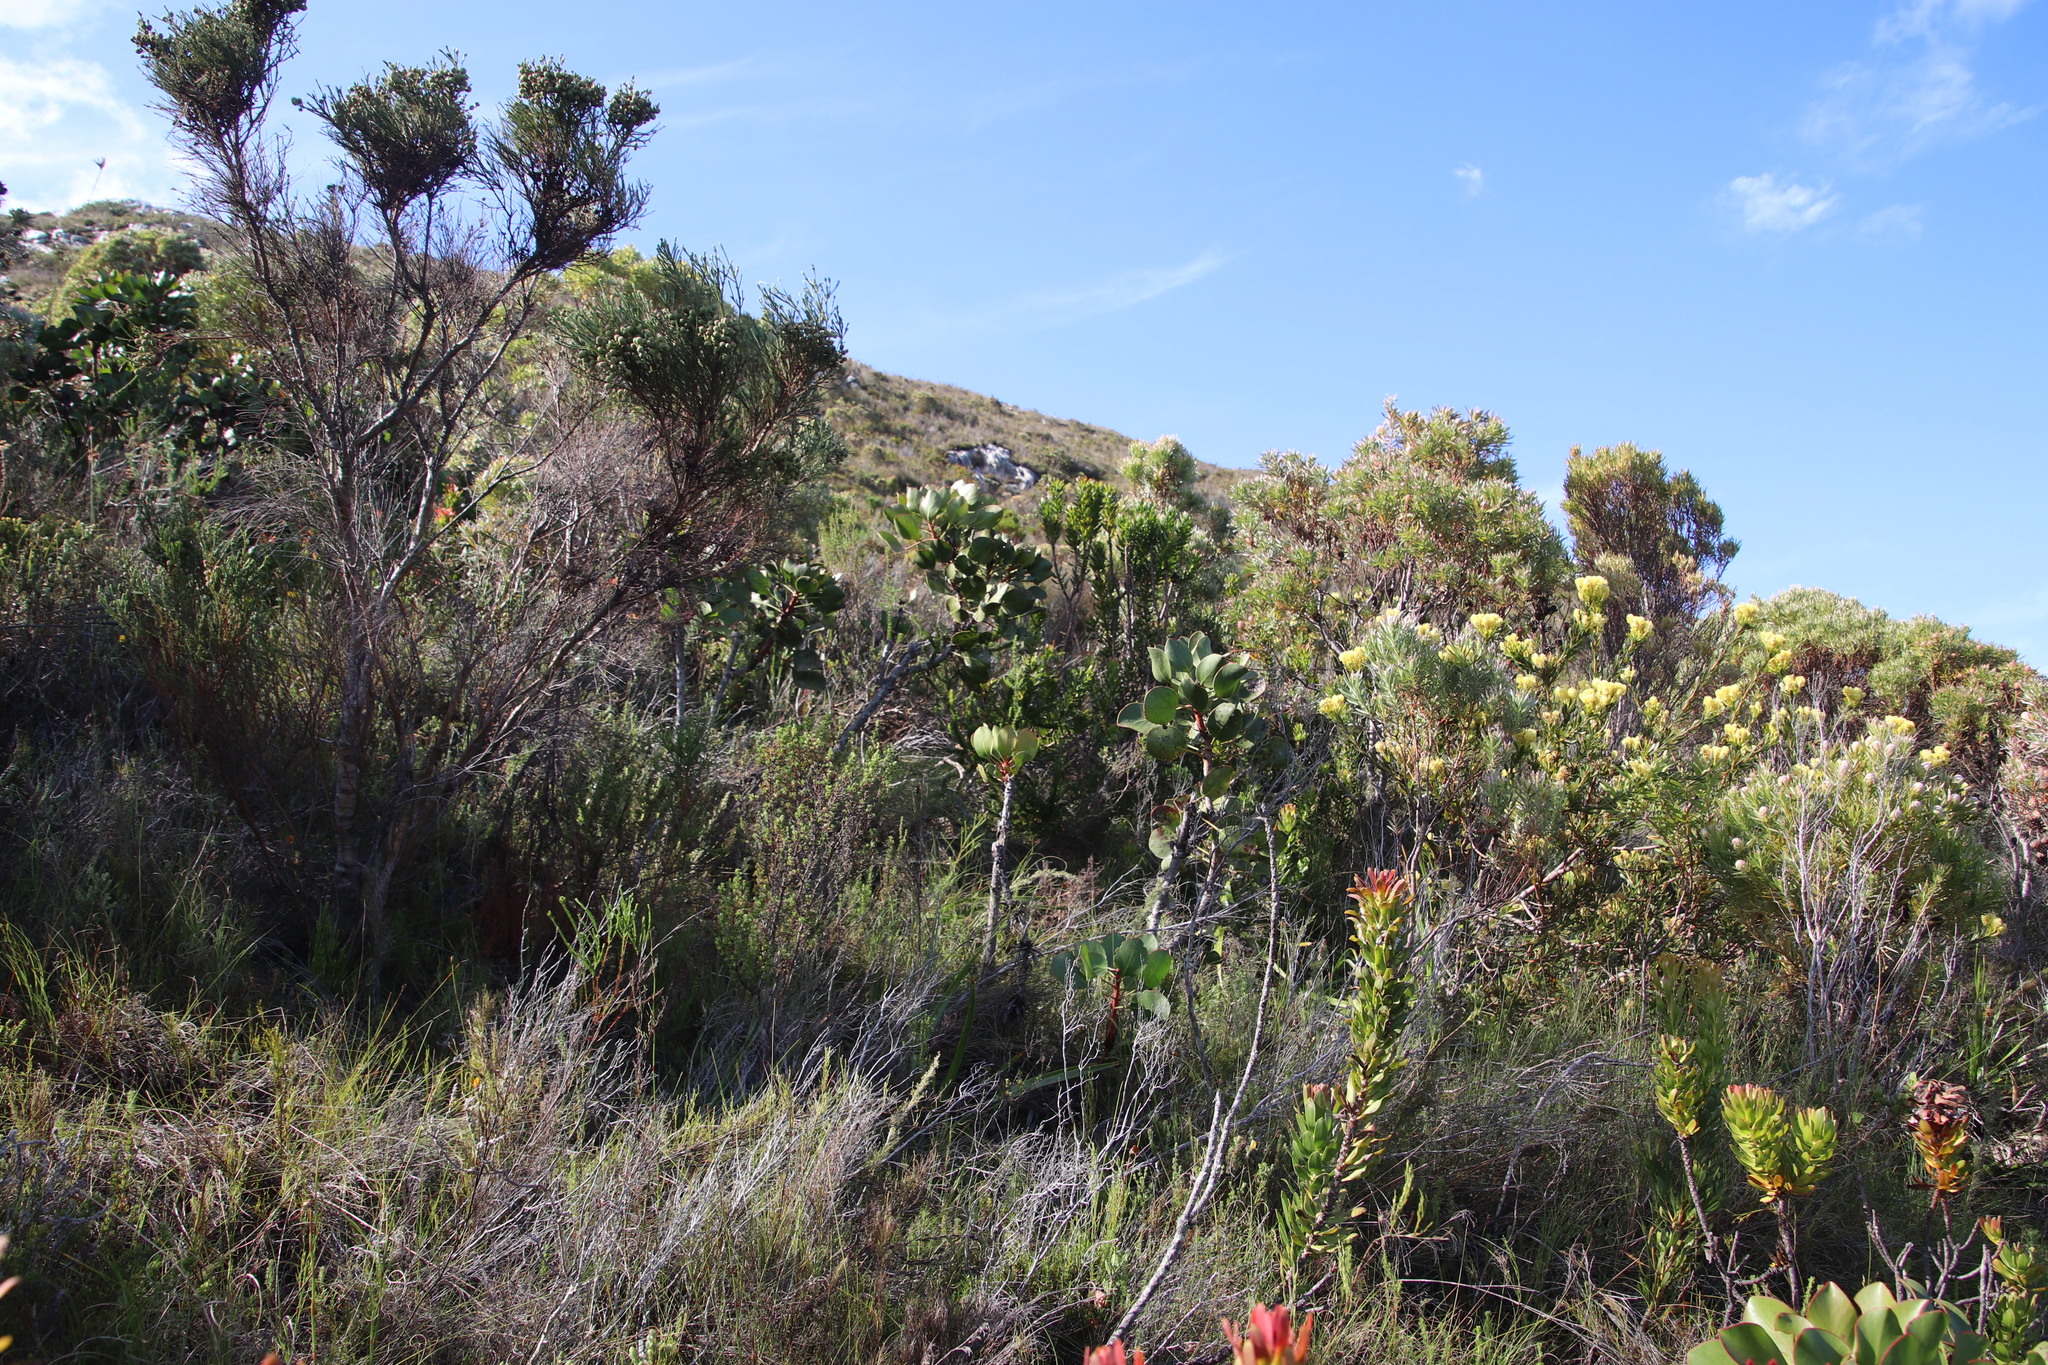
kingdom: Plantae
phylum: Tracheophyta
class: Magnoliopsida
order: Proteales
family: Proteaceae
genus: Protea
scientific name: Protea cynaroides
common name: King protea
